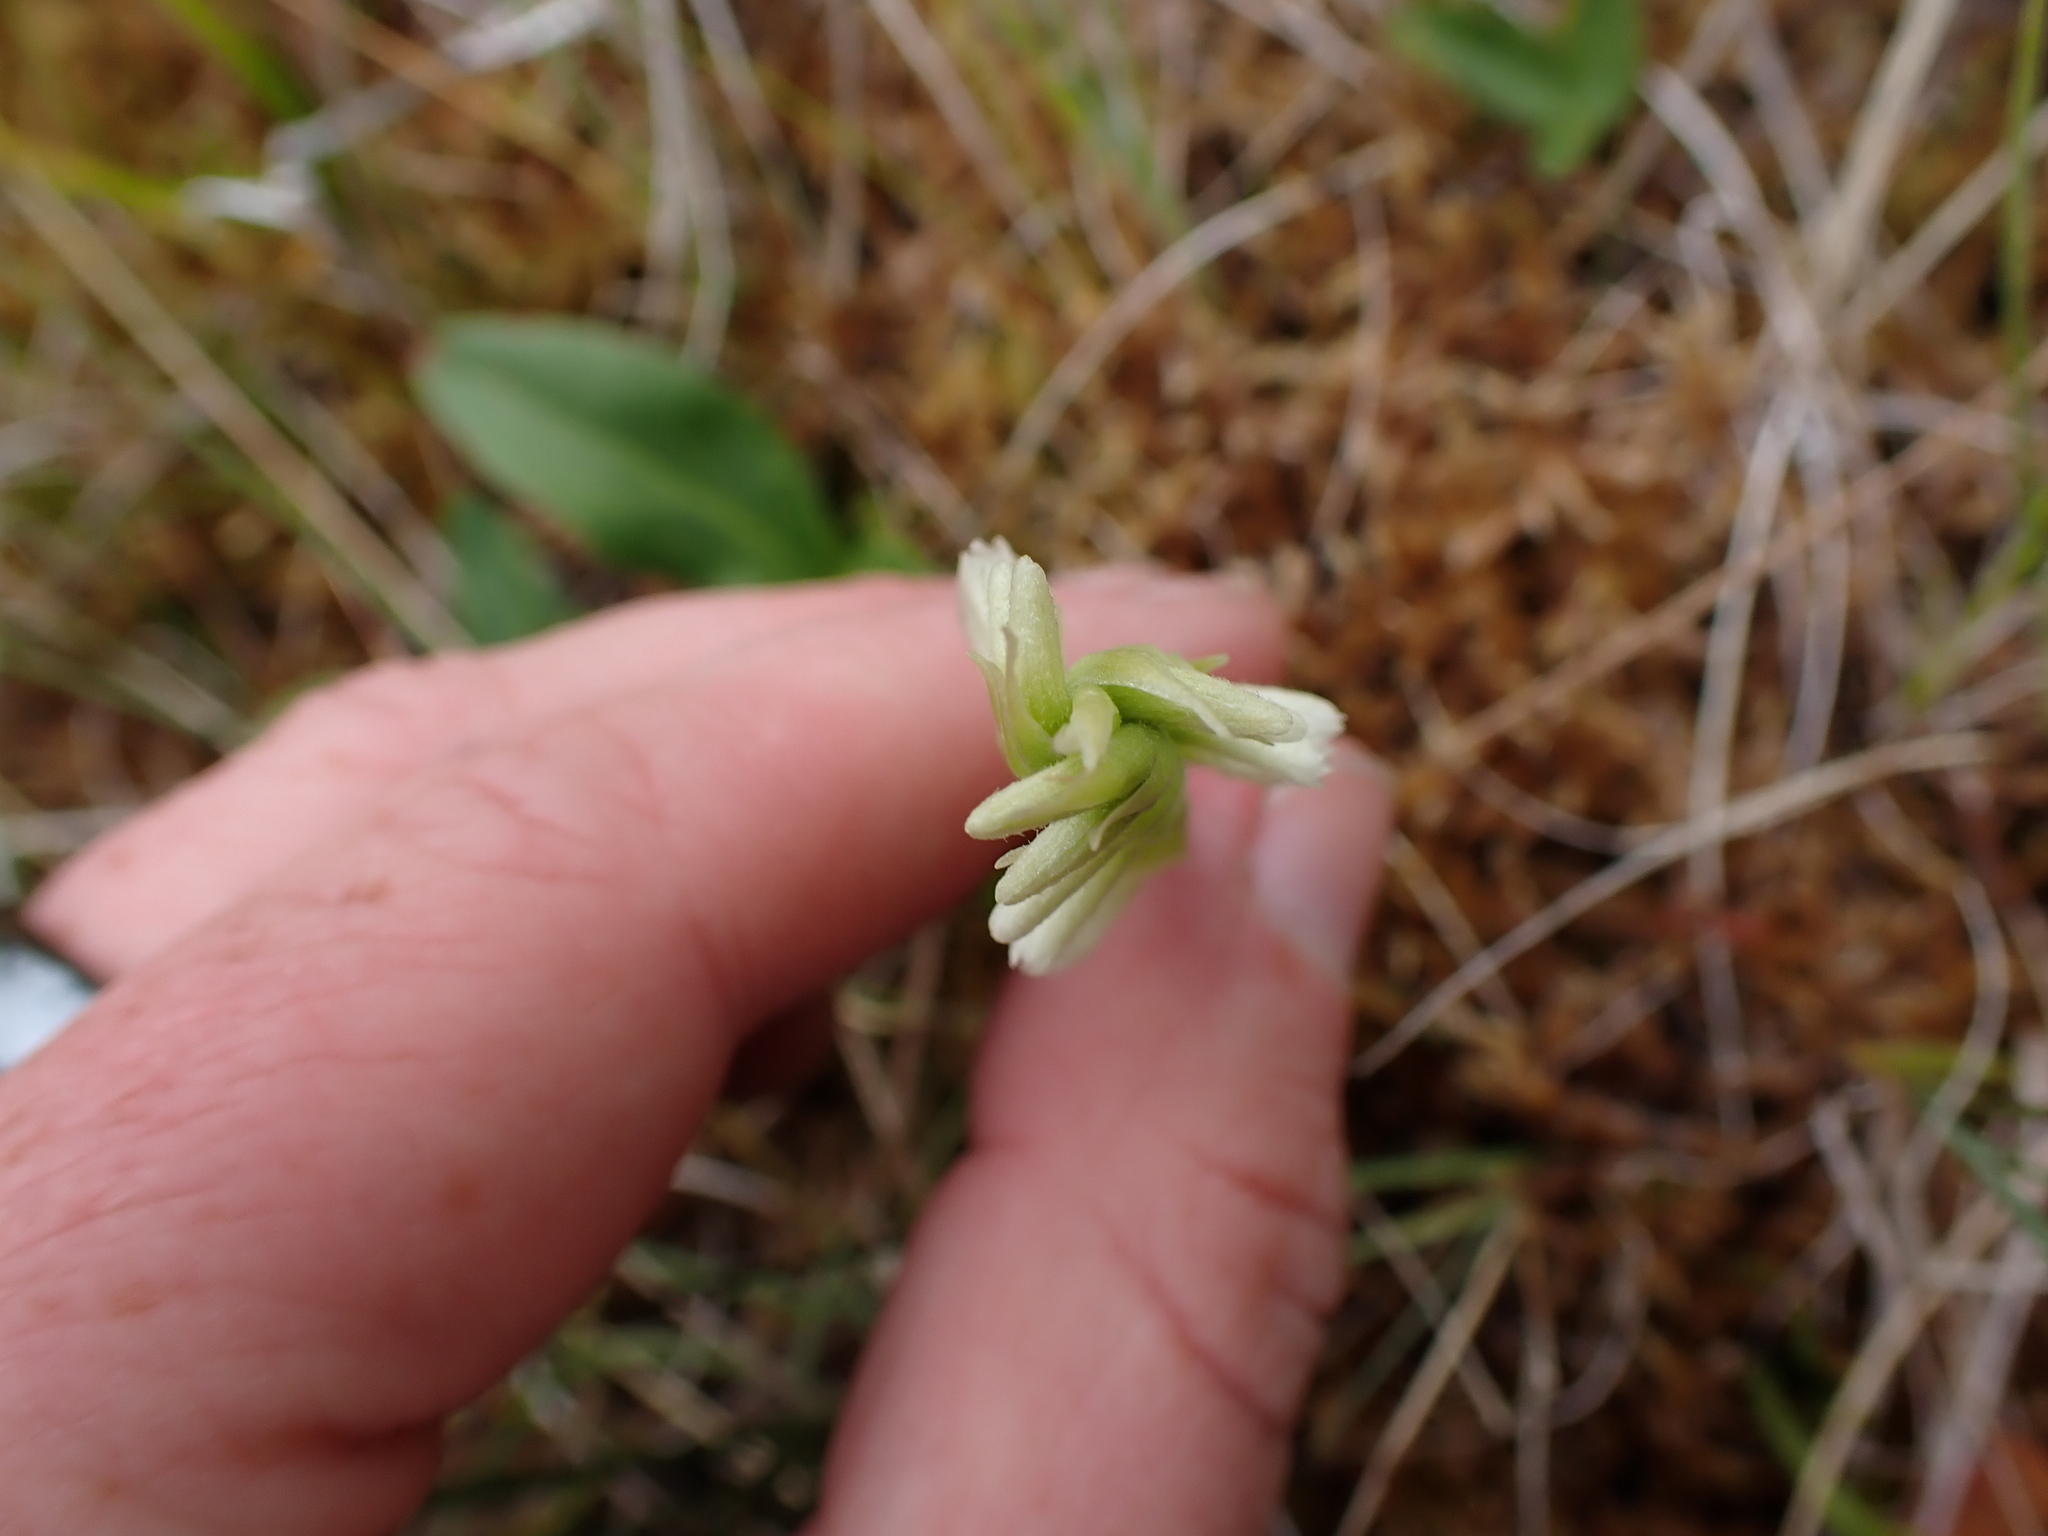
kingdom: Plantae
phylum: Tracheophyta
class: Liliopsida
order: Asparagales
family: Orchidaceae
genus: Spiranthes
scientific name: Spiranthes romanzoffiana
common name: Irish lady's-tresses
